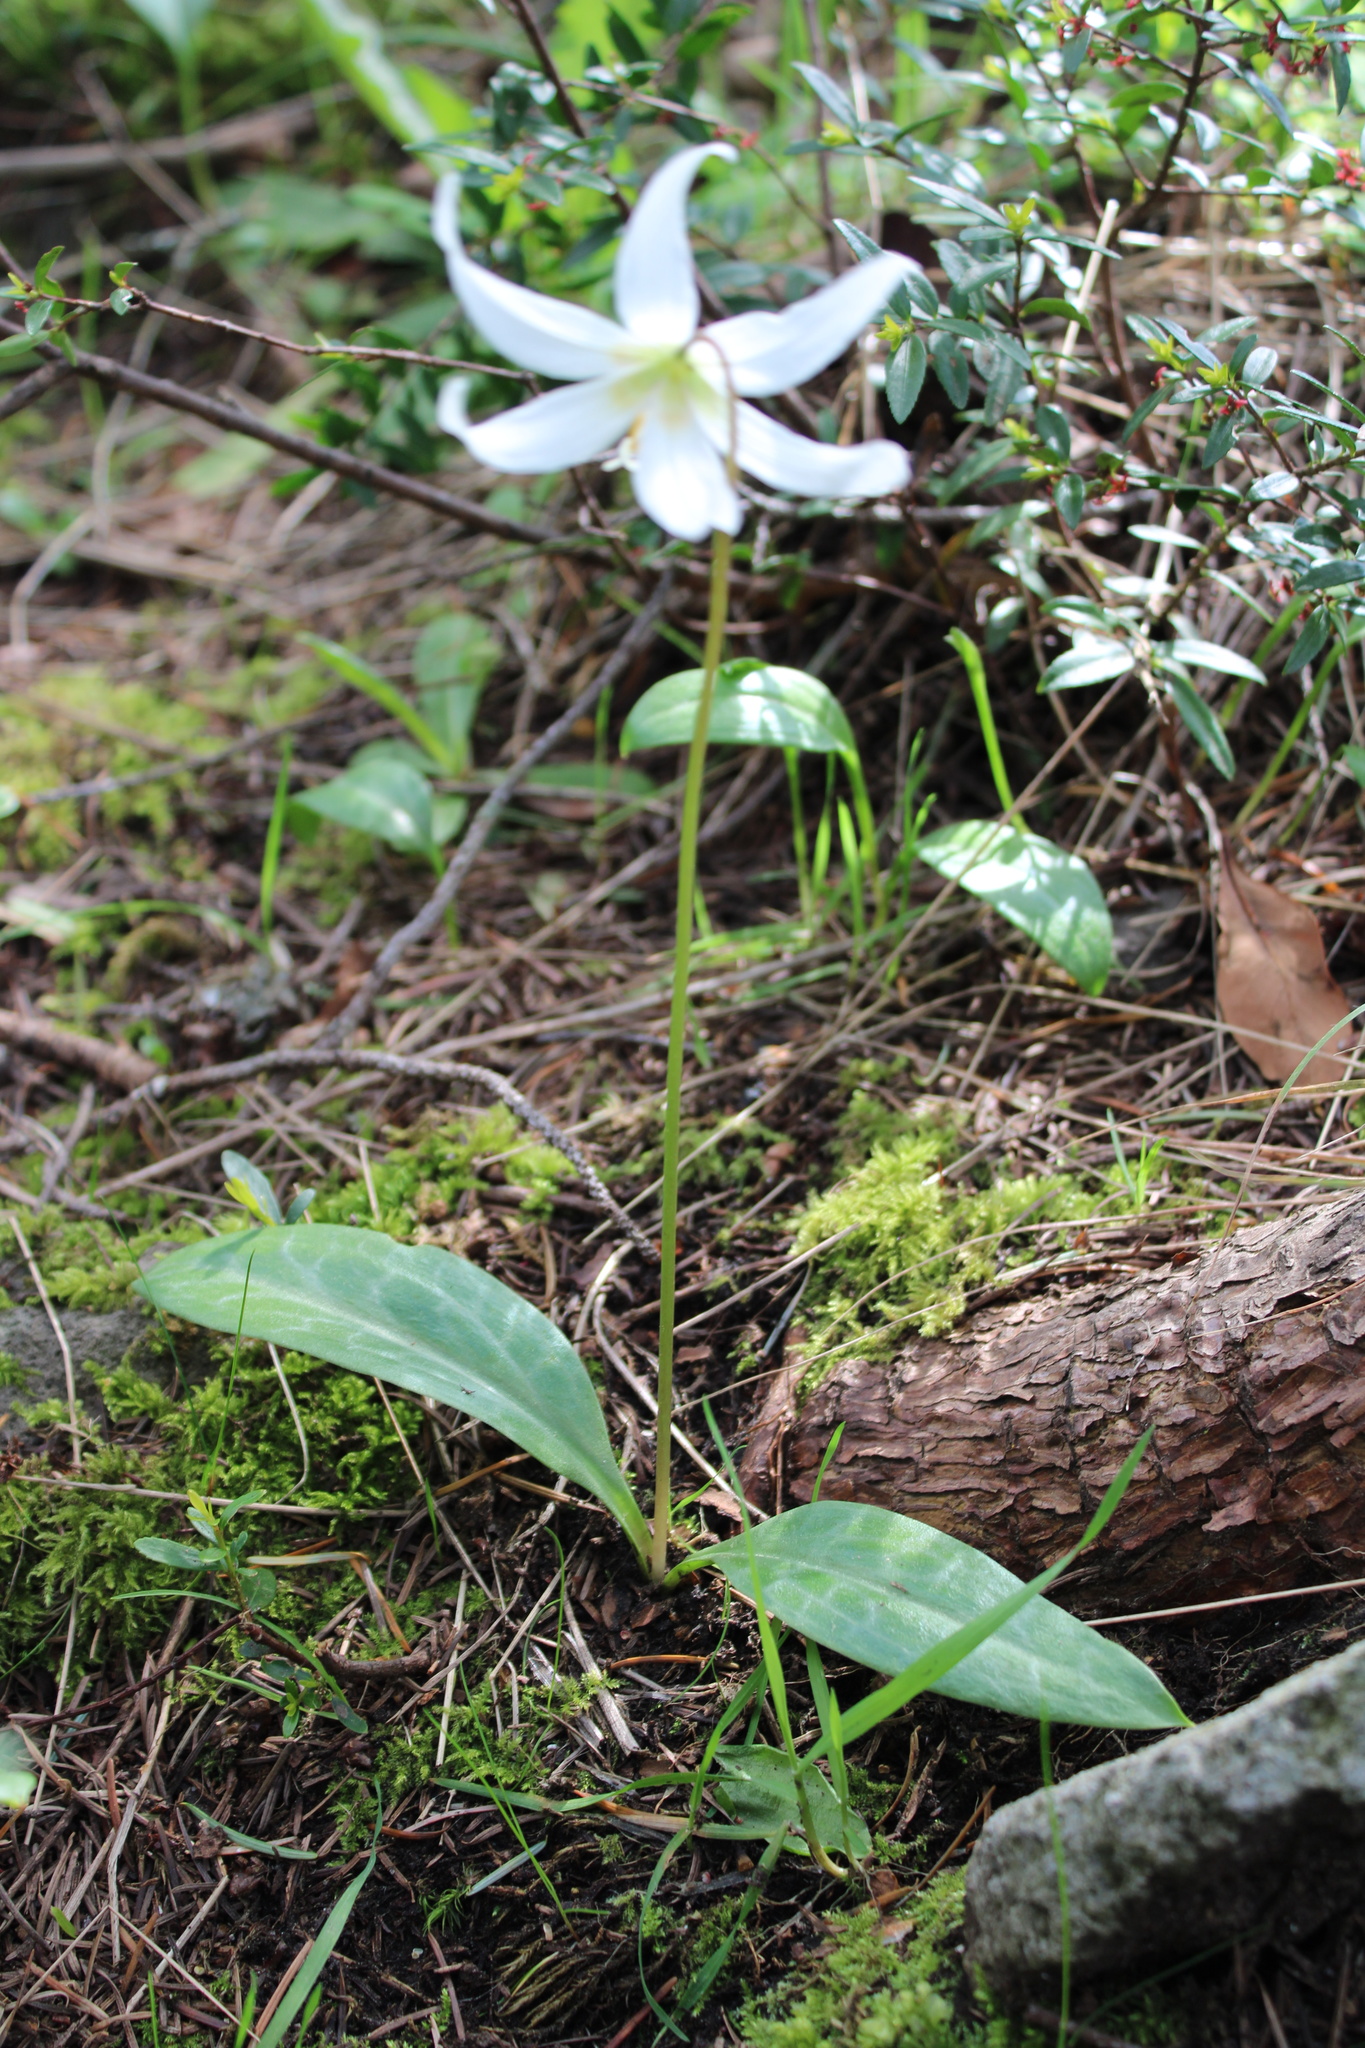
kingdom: Plantae
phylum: Tracheophyta
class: Liliopsida
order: Liliales
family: Liliaceae
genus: Erythronium
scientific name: Erythronium oregonum
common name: Giant adder's-tongue
